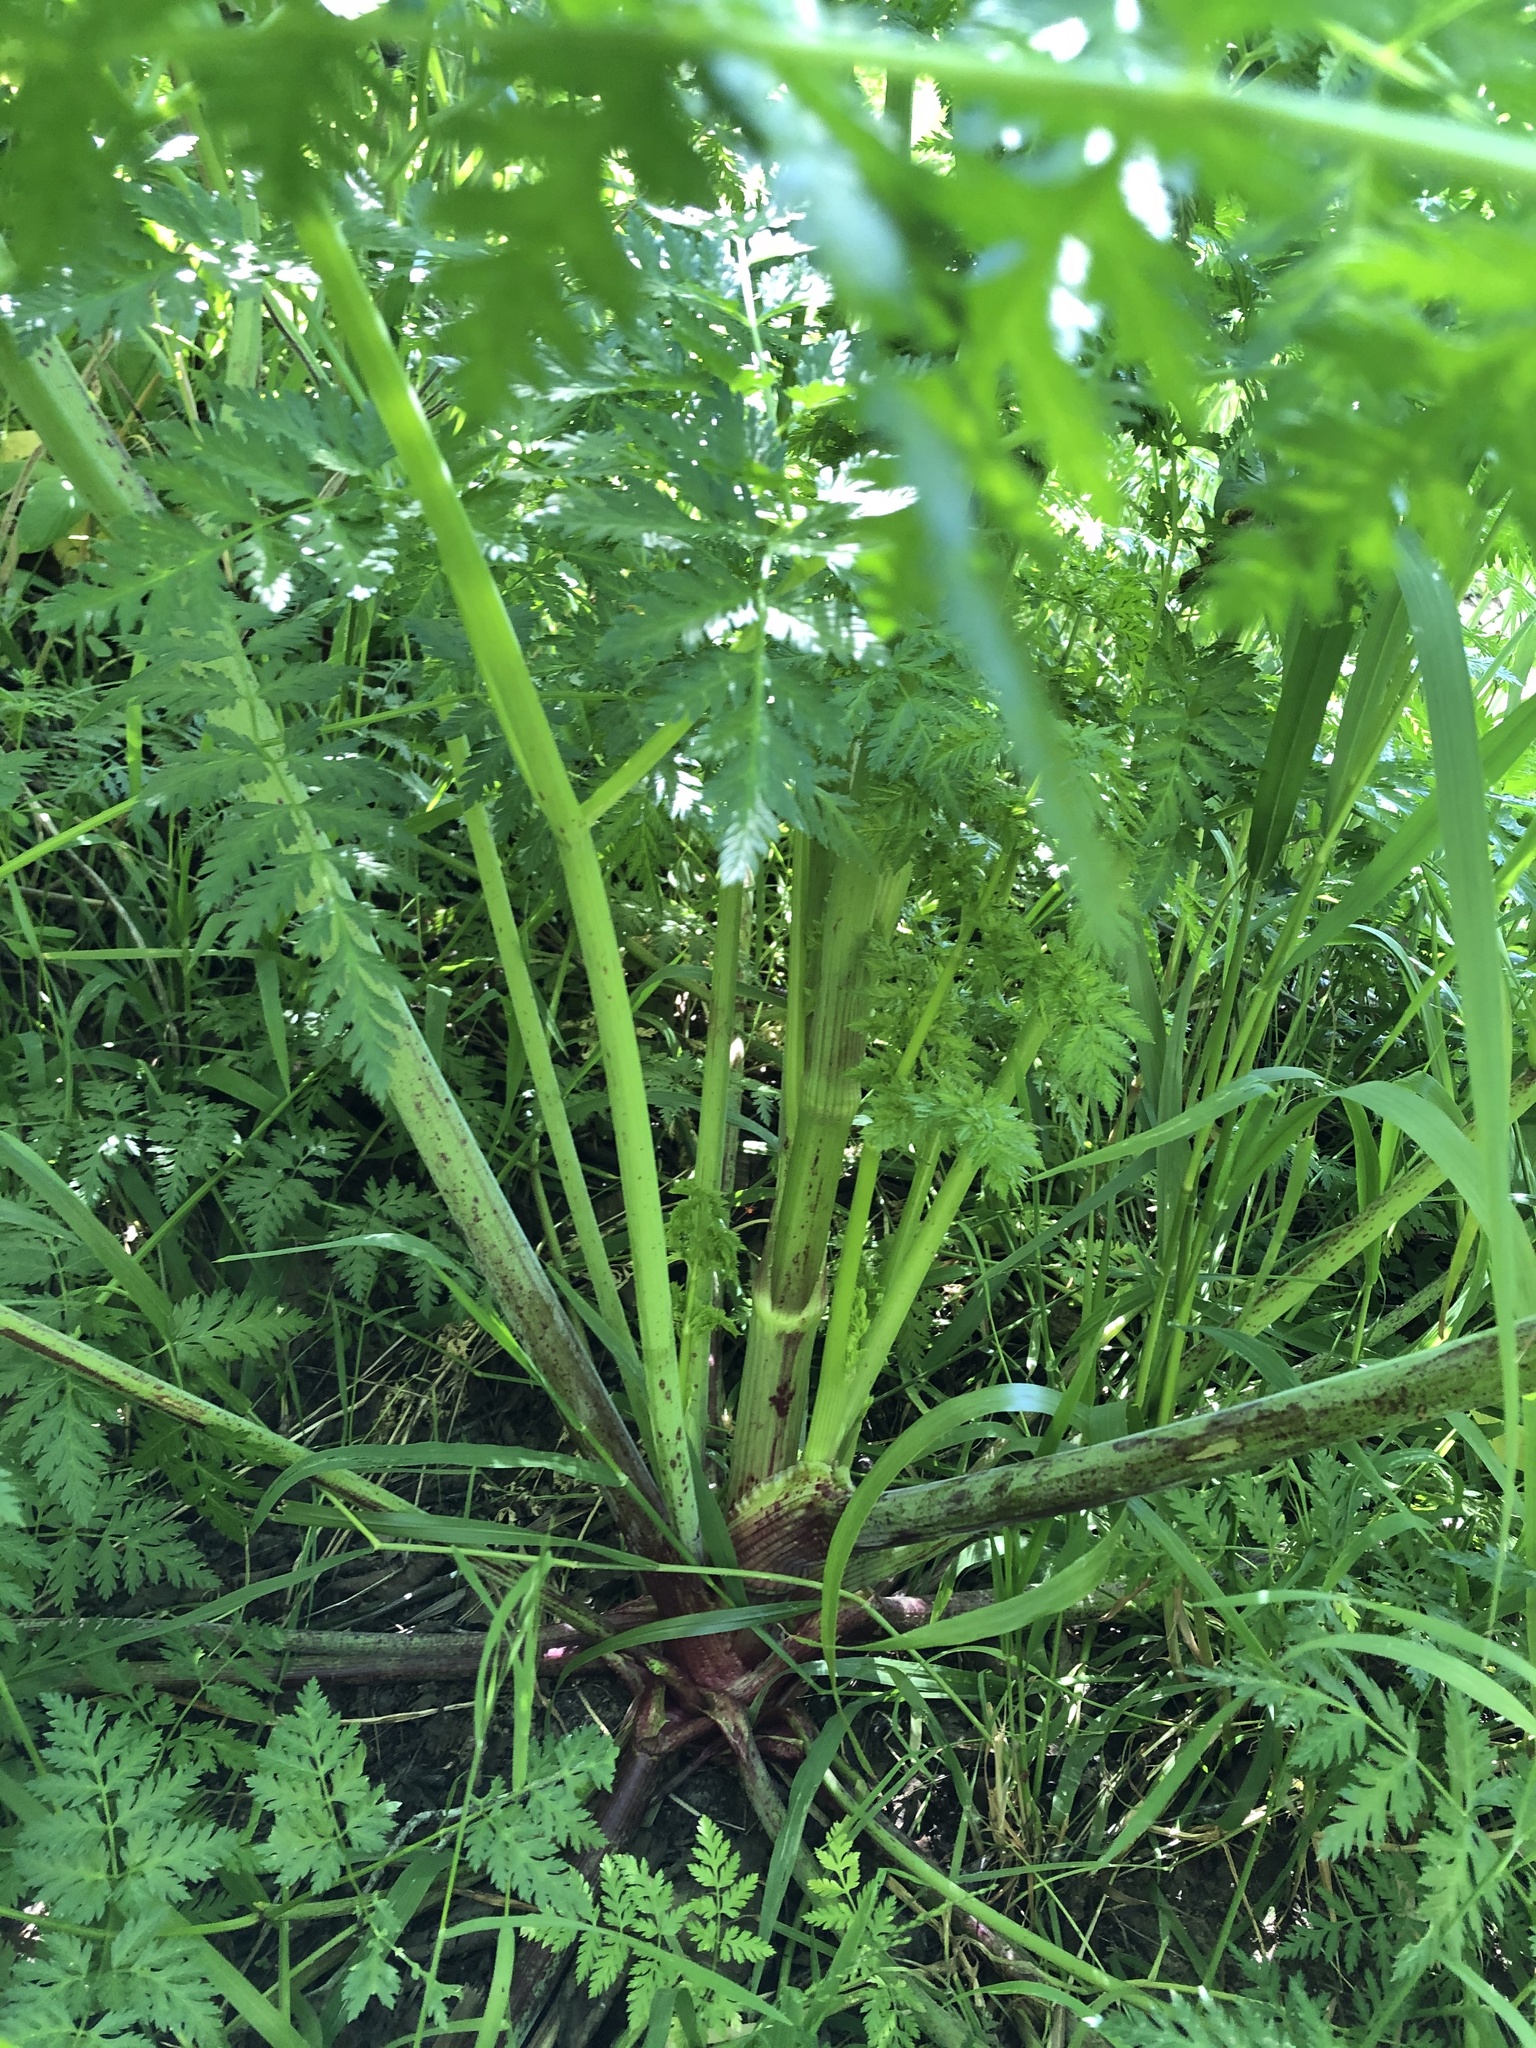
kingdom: Plantae
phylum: Tracheophyta
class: Magnoliopsida
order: Apiales
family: Apiaceae
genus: Conium
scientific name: Conium maculatum
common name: Hemlock
